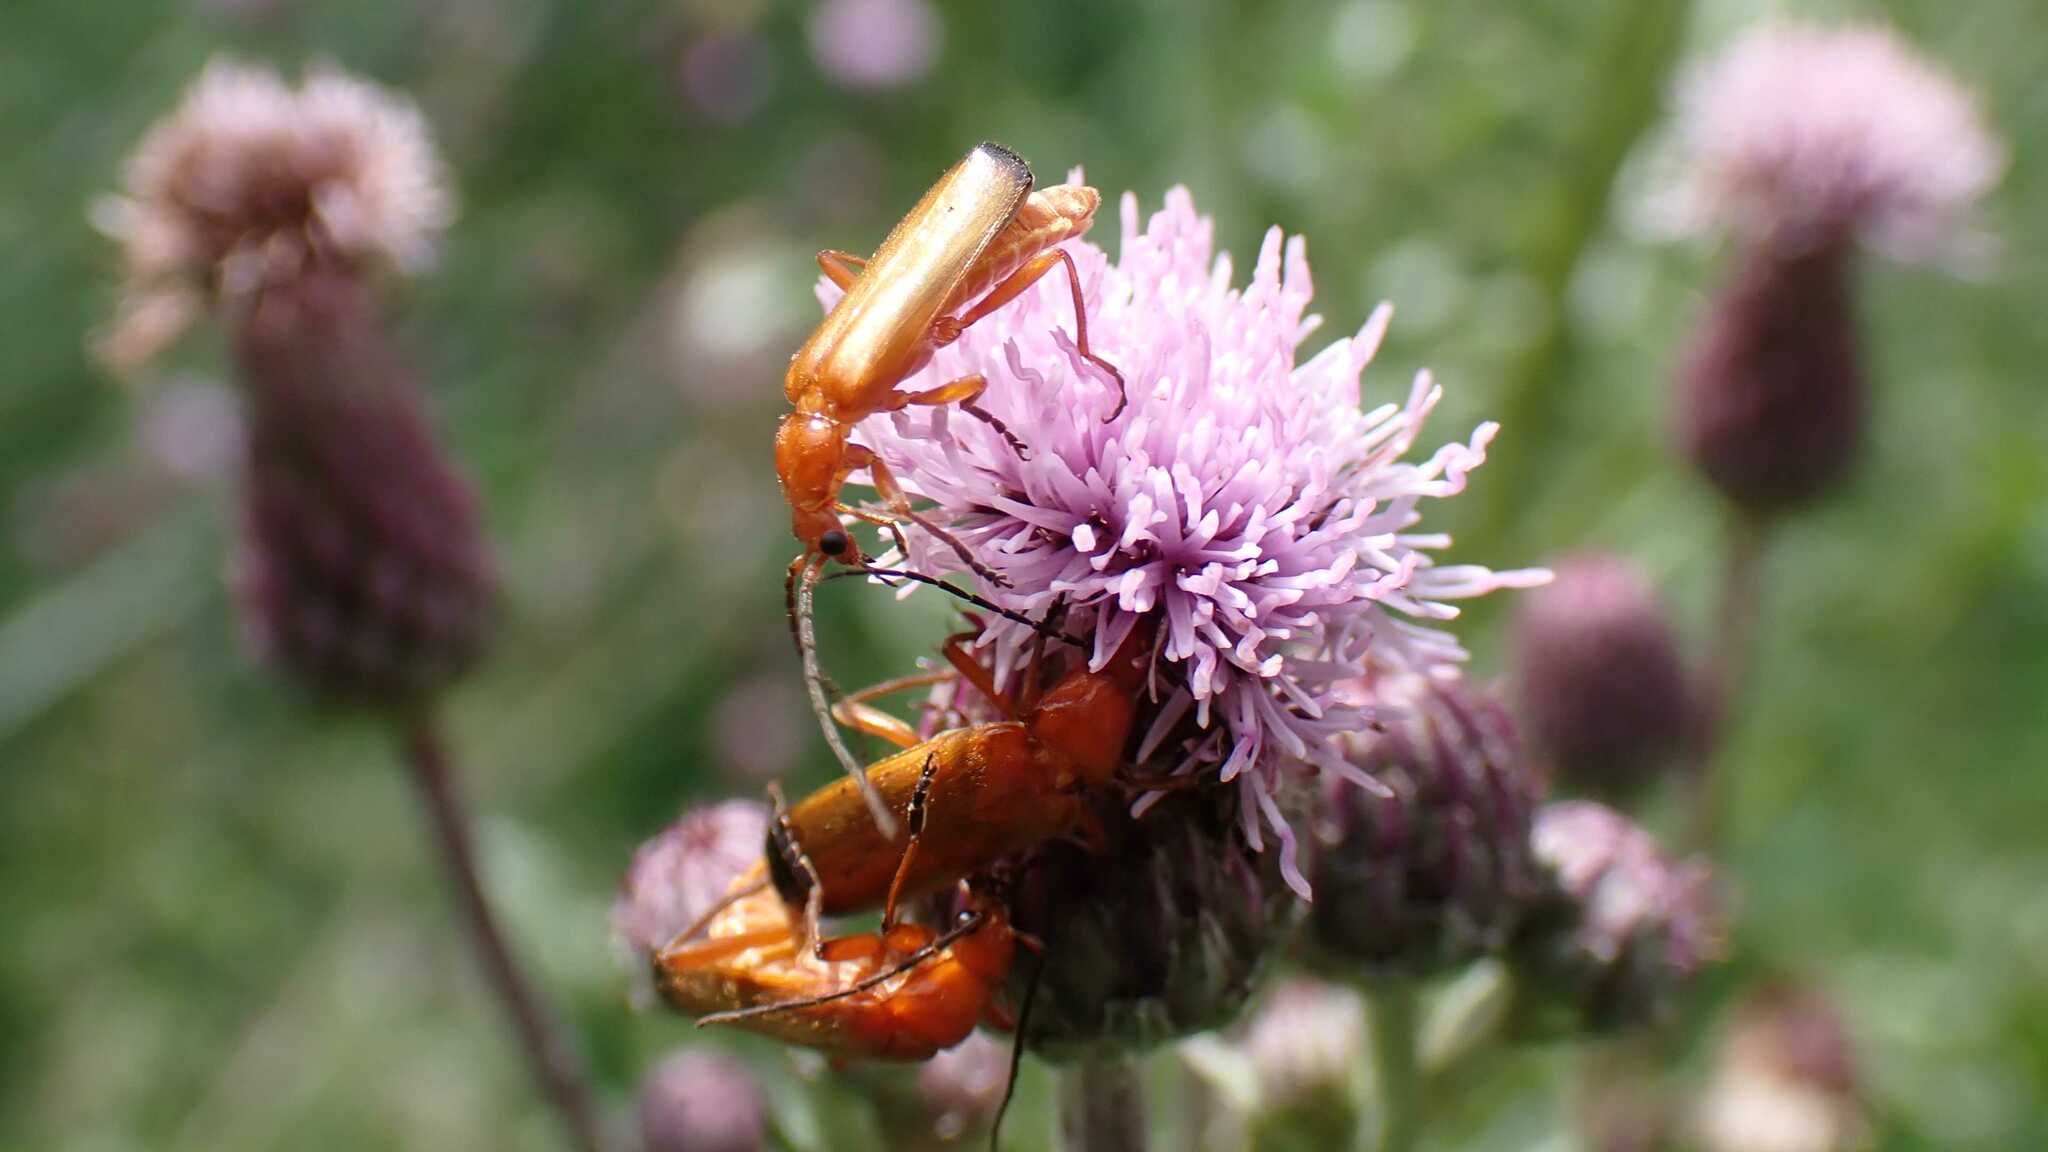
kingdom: Animalia
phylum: Arthropoda
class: Insecta
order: Coleoptera
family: Cantharidae
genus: Rhagonycha
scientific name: Rhagonycha fulva
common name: Common red soldier beetle
